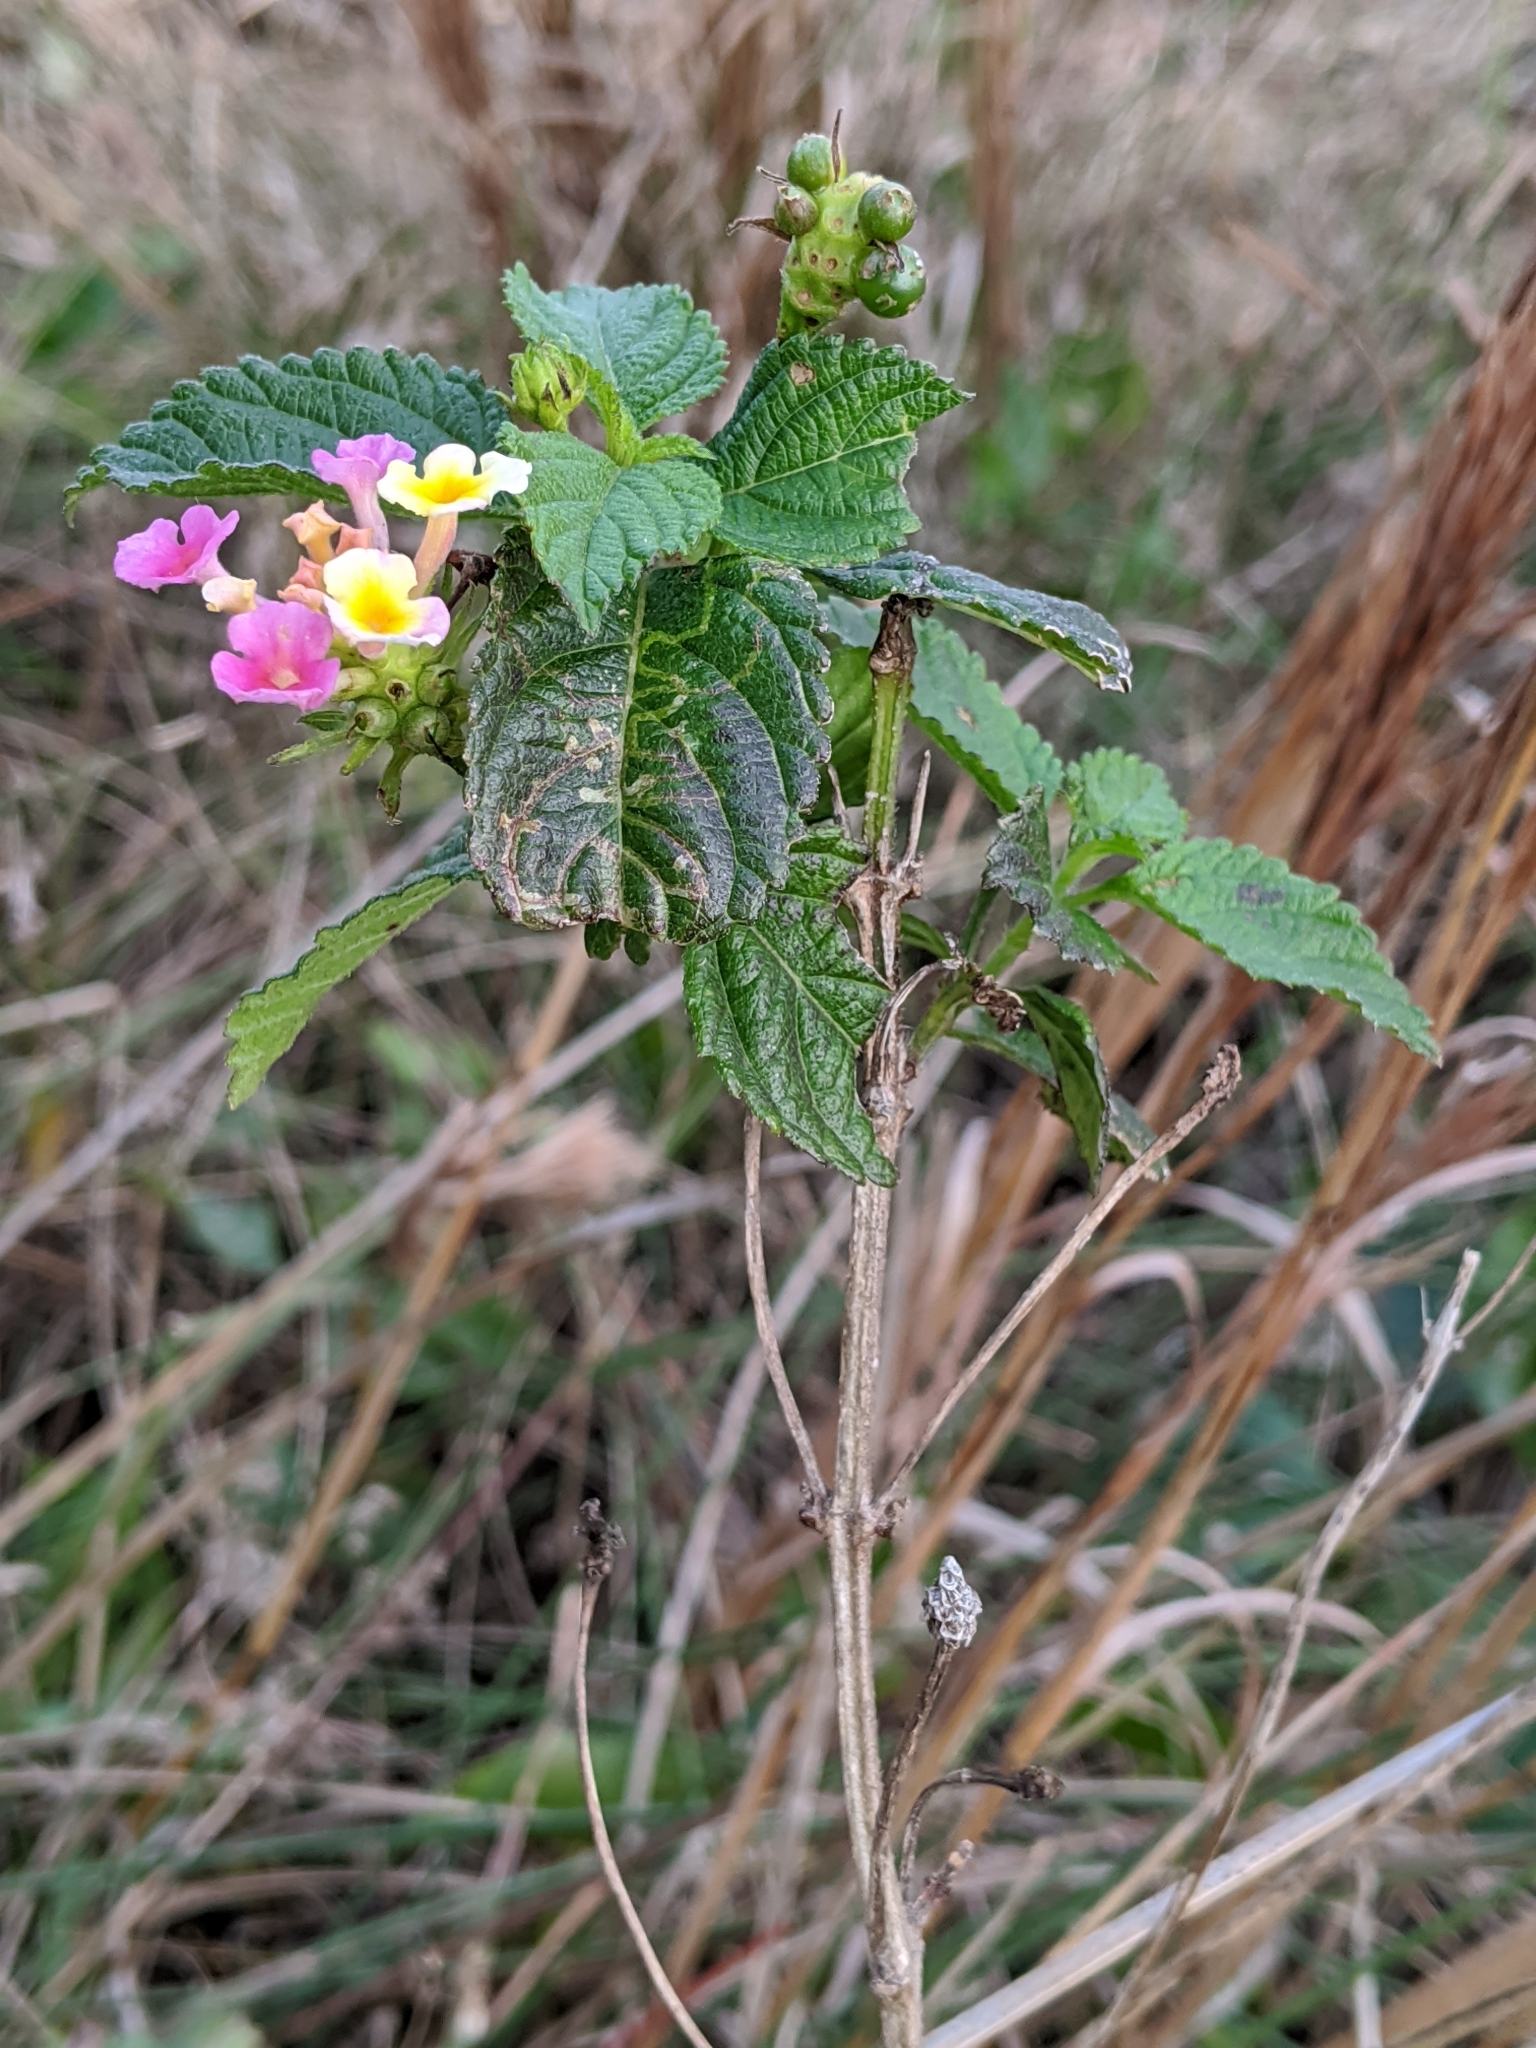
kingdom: Plantae
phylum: Tracheophyta
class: Magnoliopsida
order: Lamiales
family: Verbenaceae
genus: Lantana
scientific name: Lantana strigocamara
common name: Lantana
